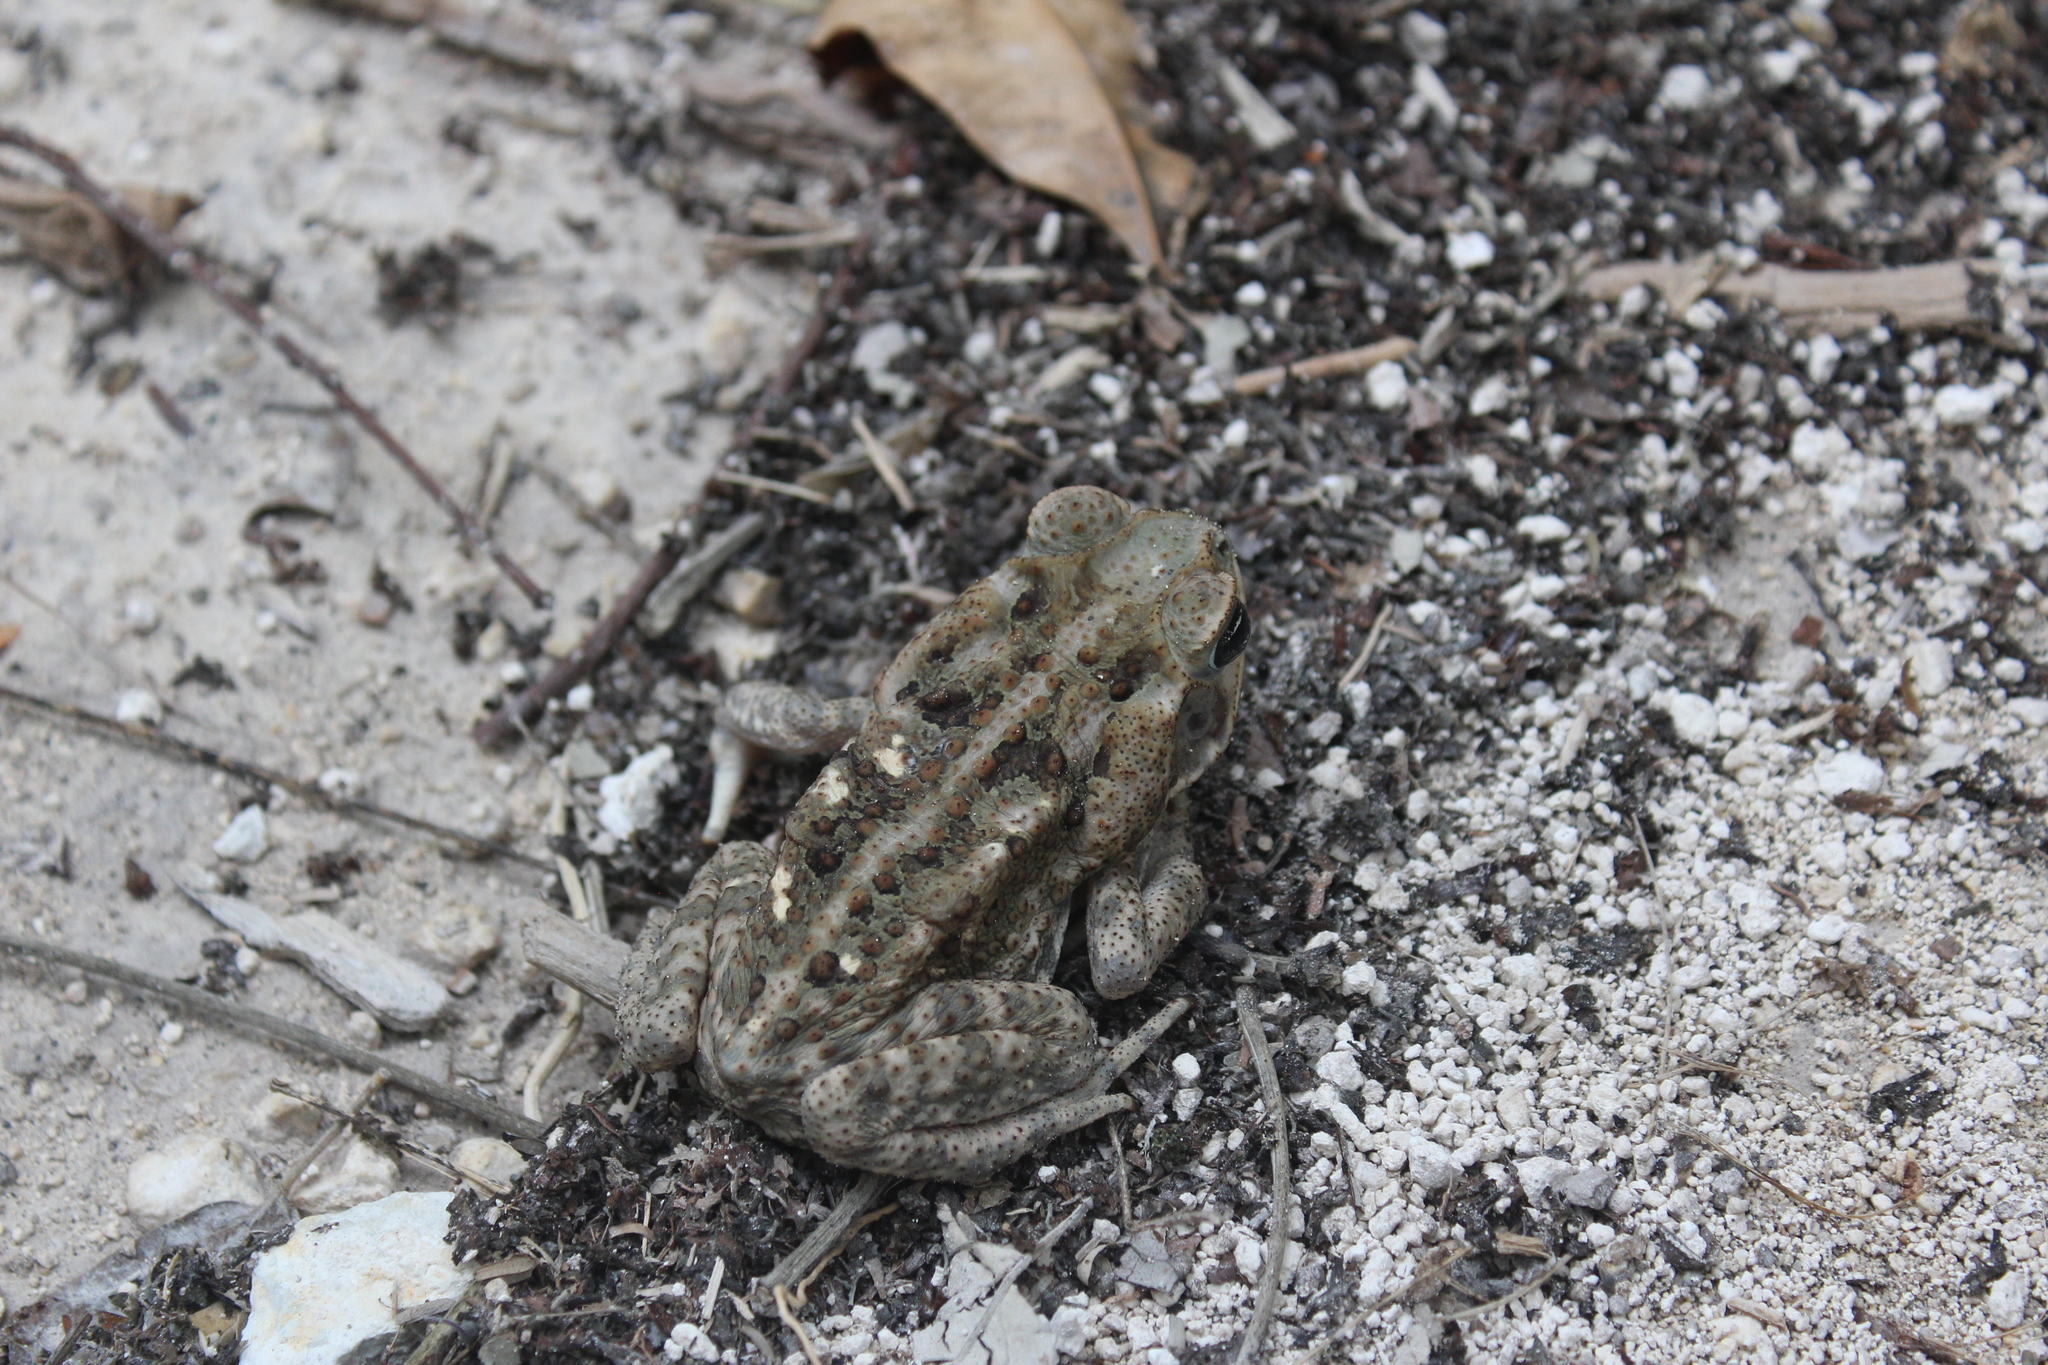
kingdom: Animalia
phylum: Chordata
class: Amphibia
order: Anura
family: Bufonidae
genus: Rhinella
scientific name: Rhinella horribilis
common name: Mesoamerican cane toad
